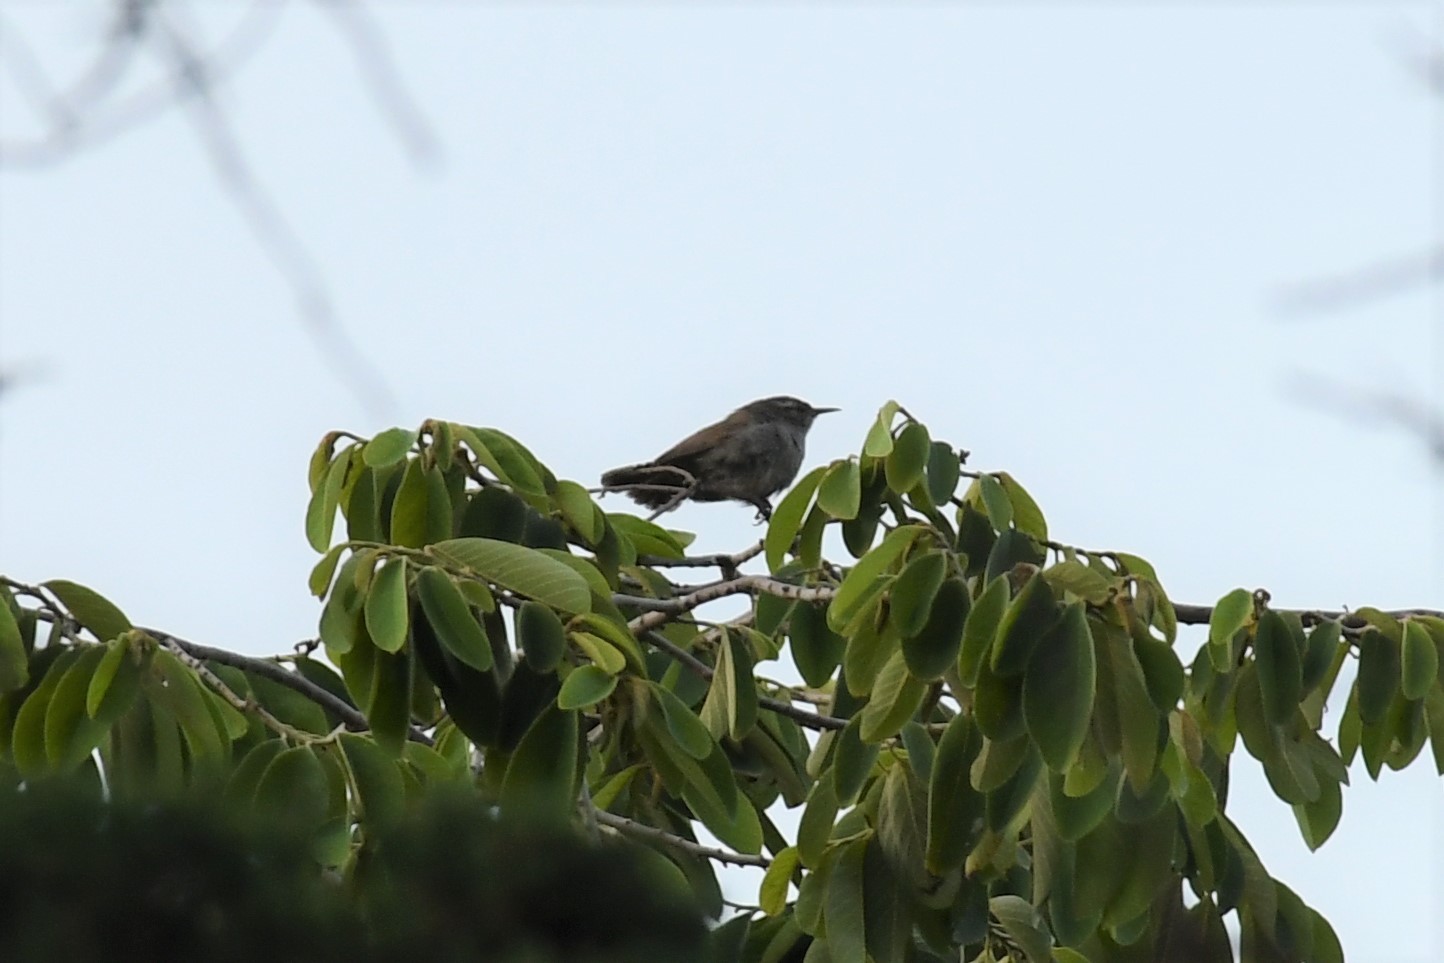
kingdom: Animalia
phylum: Chordata
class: Aves
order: Passeriformes
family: Troglodytidae
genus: Thryomanes
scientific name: Thryomanes bewickii
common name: Bewick's wren
